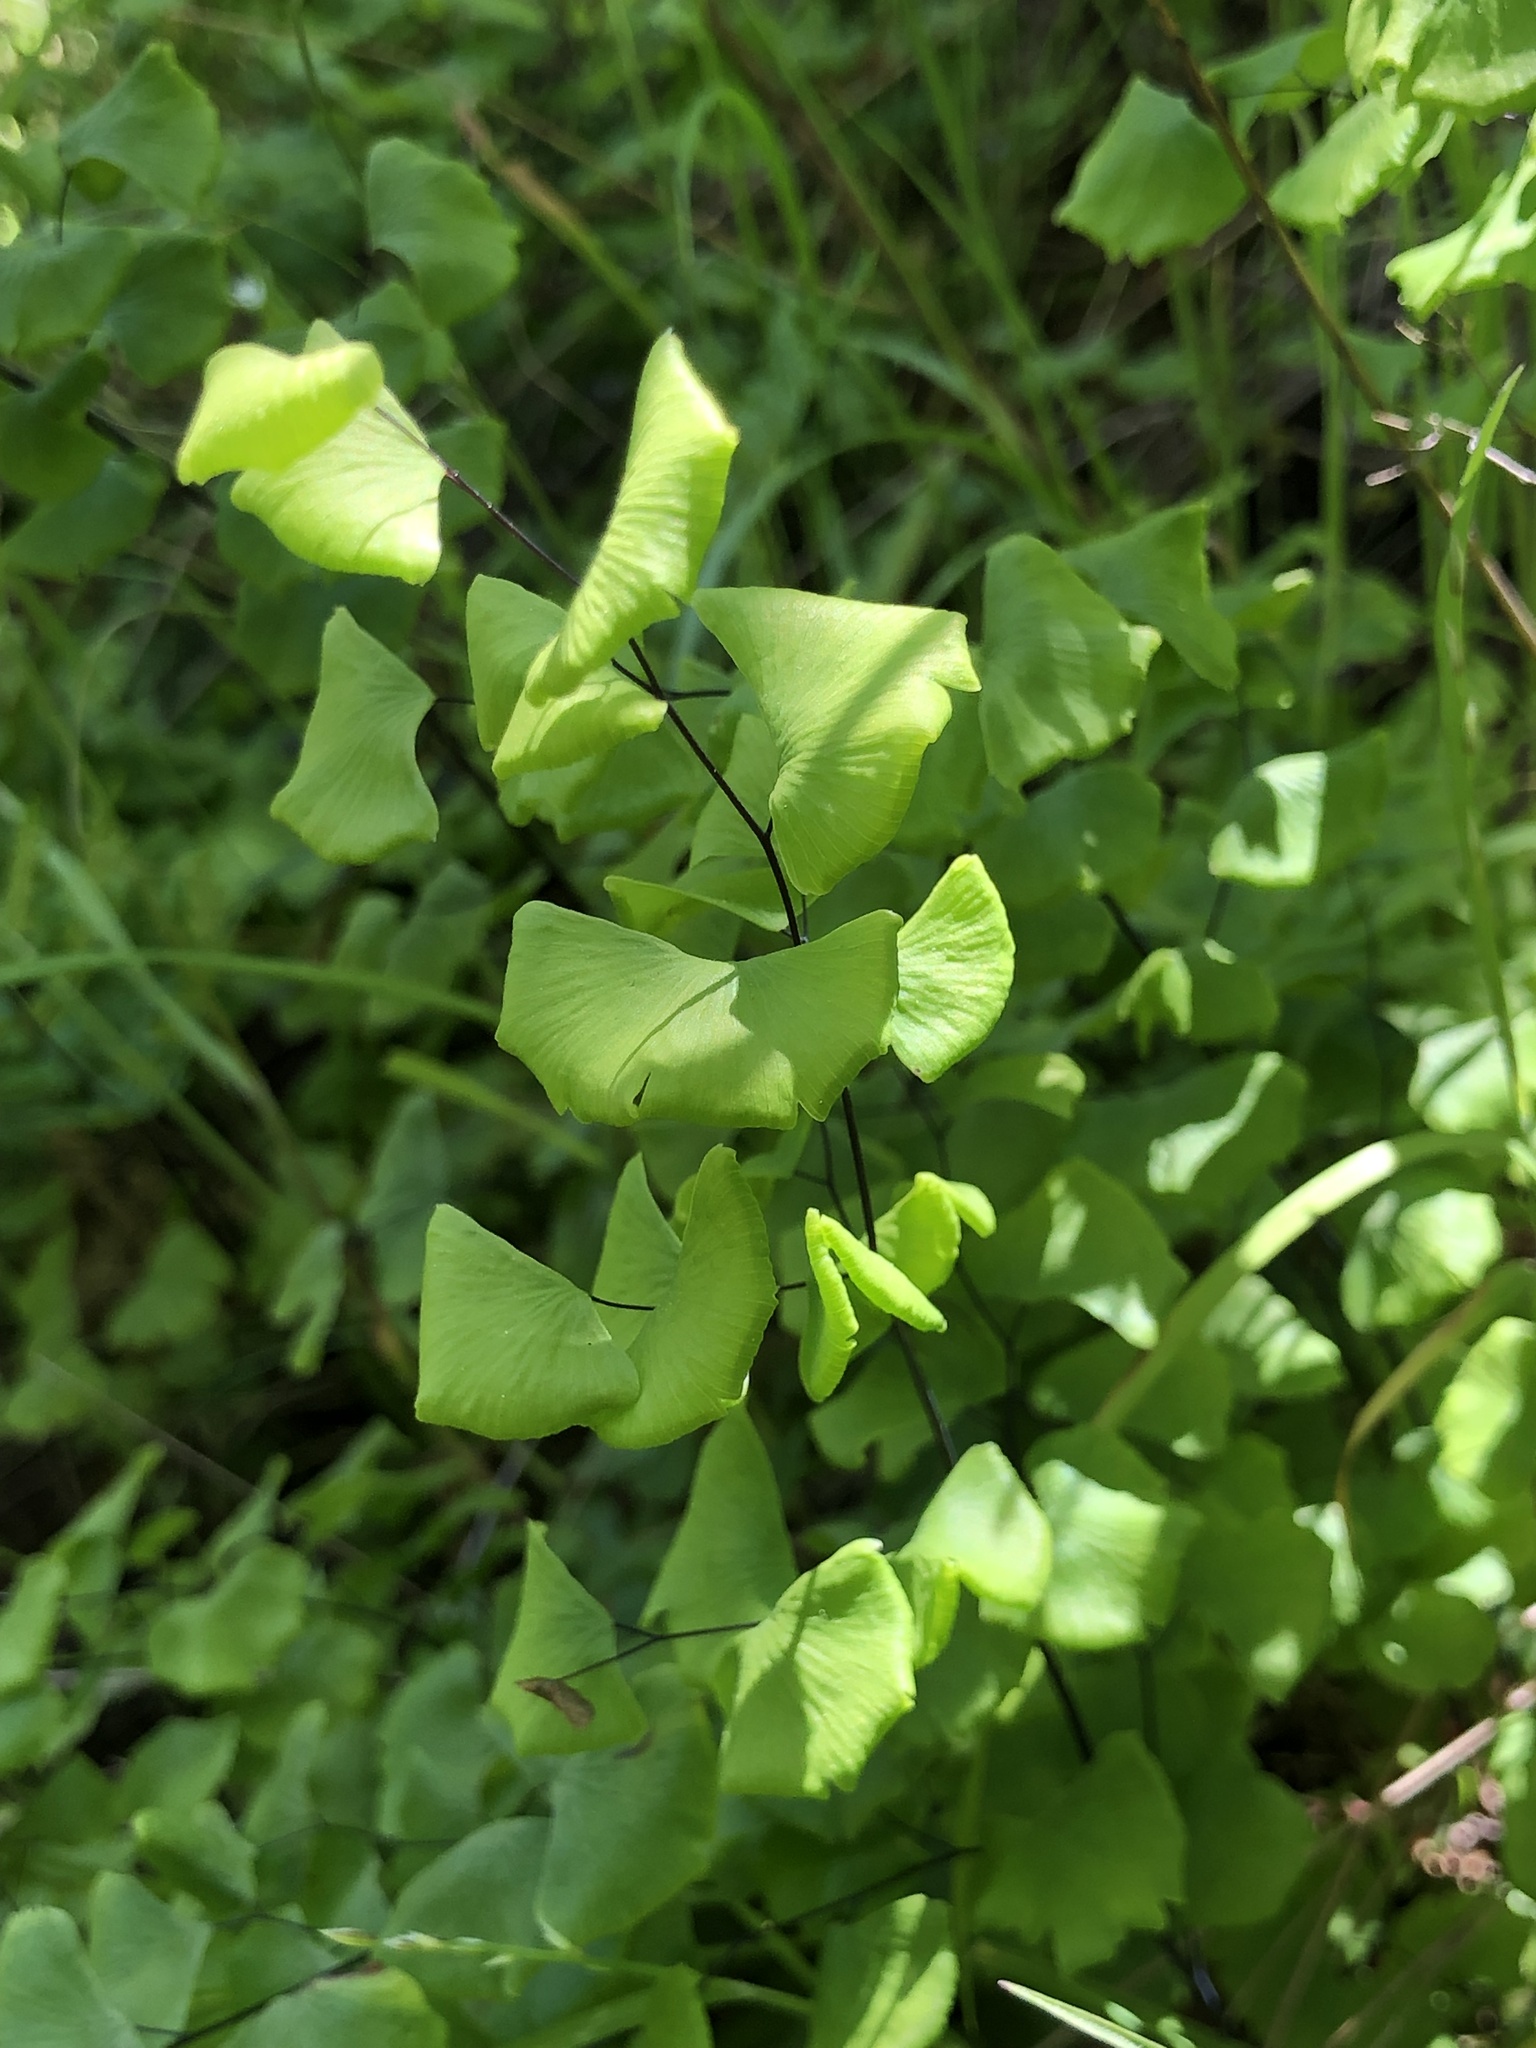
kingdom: Plantae
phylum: Tracheophyta
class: Polypodiopsida
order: Polypodiales
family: Pteridaceae
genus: Adiantum
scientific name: Adiantum jordanii
